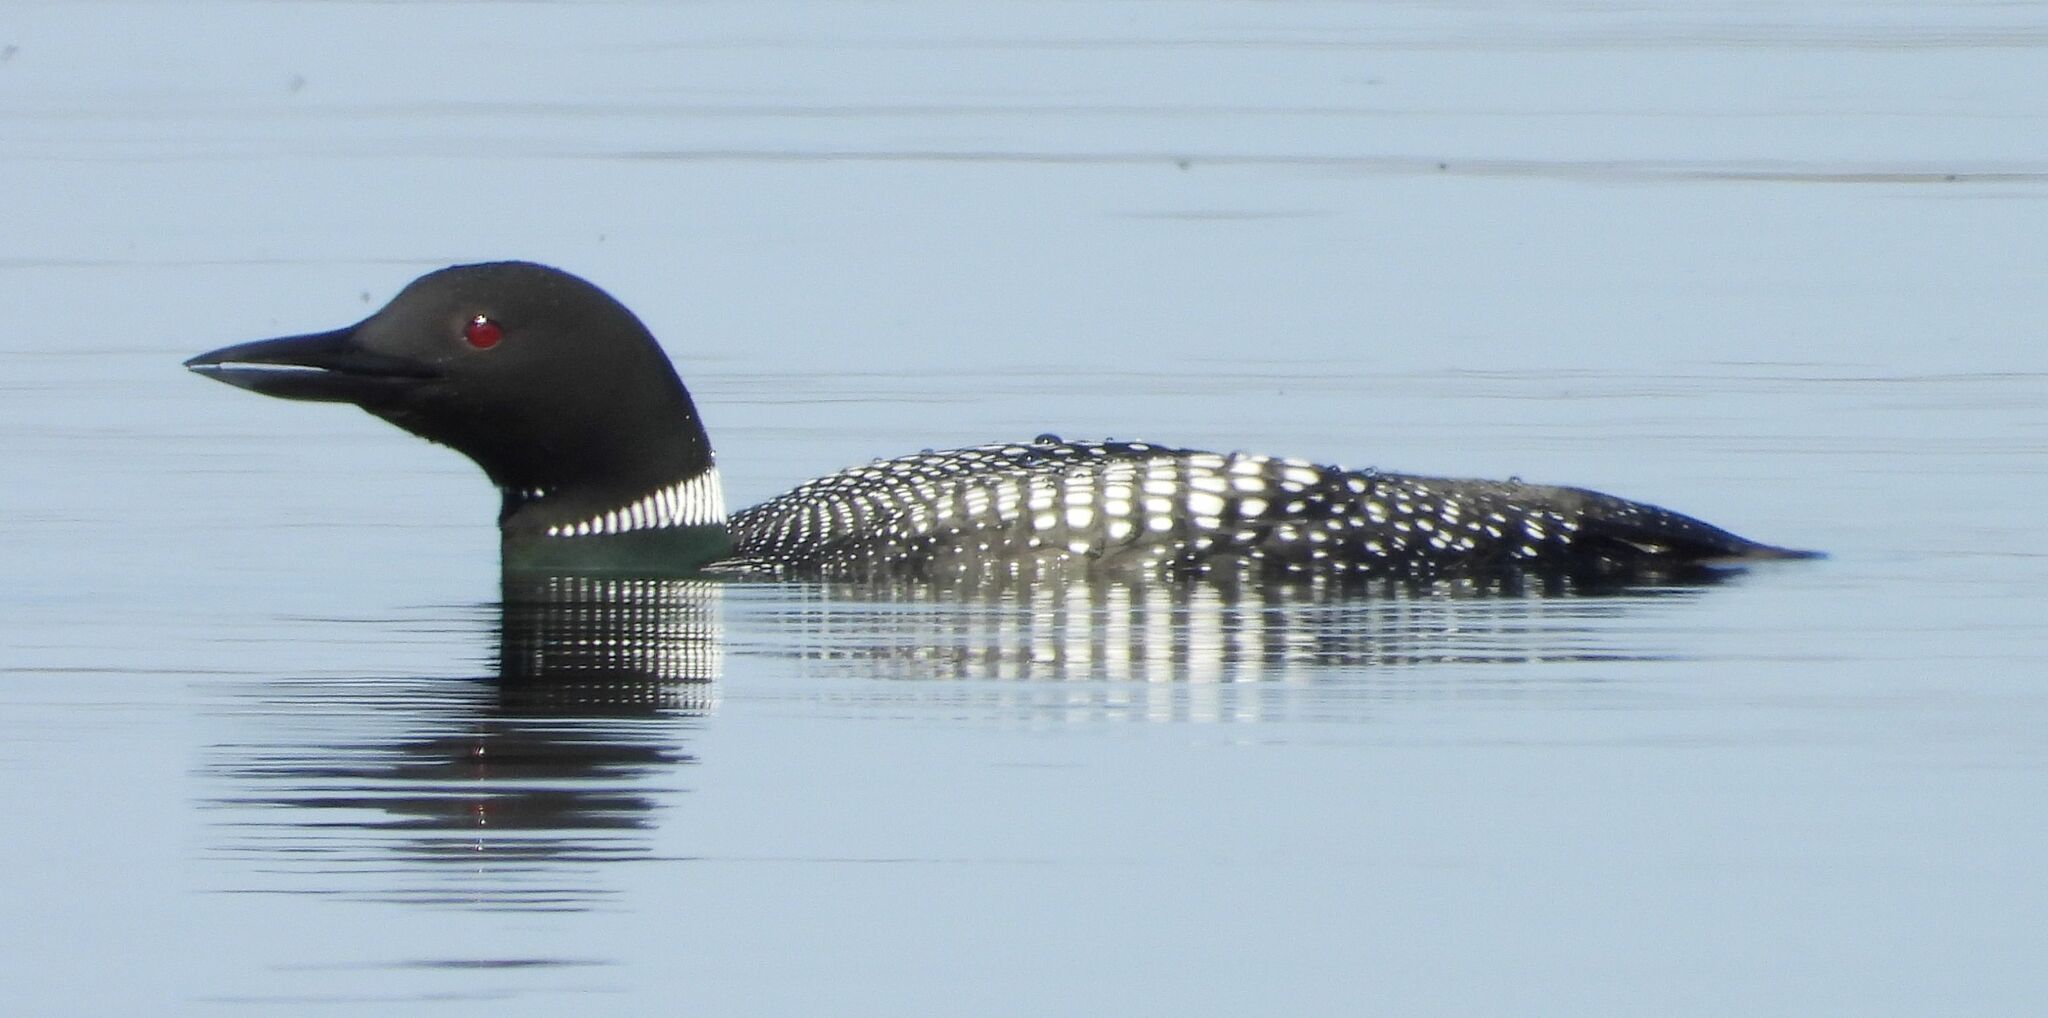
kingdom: Animalia
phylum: Chordata
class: Aves
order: Gaviiformes
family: Gaviidae
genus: Gavia
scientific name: Gavia immer
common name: Common loon
